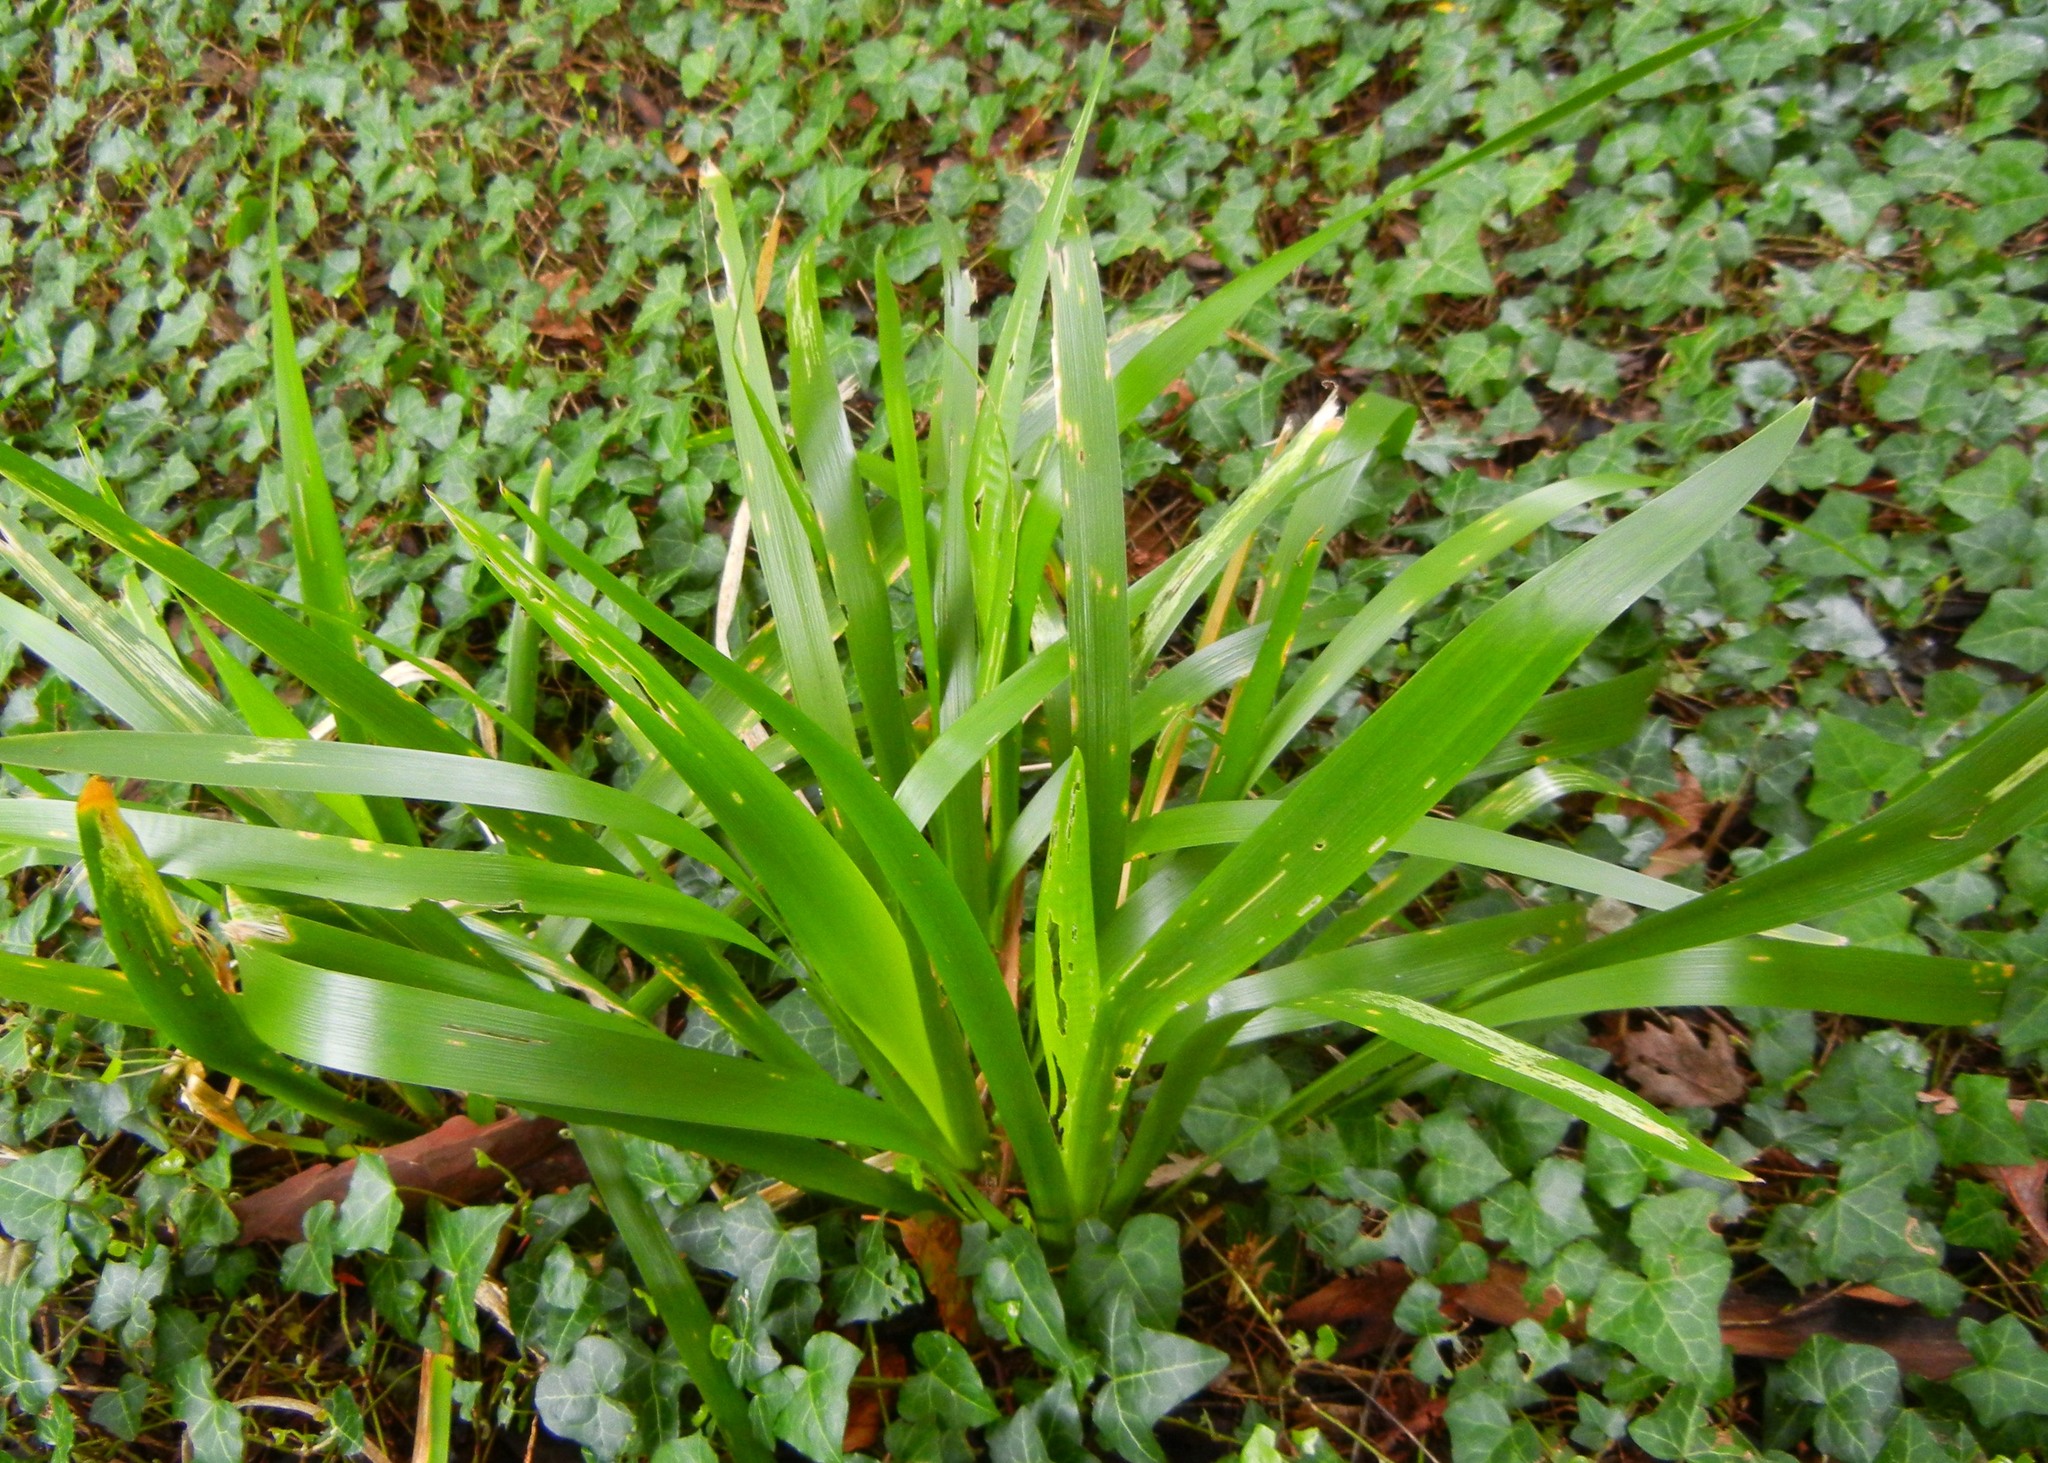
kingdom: Plantae
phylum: Tracheophyta
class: Liliopsida
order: Asparagales
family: Iridaceae
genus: Iris
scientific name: Iris foetidissima
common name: Stinking iris
